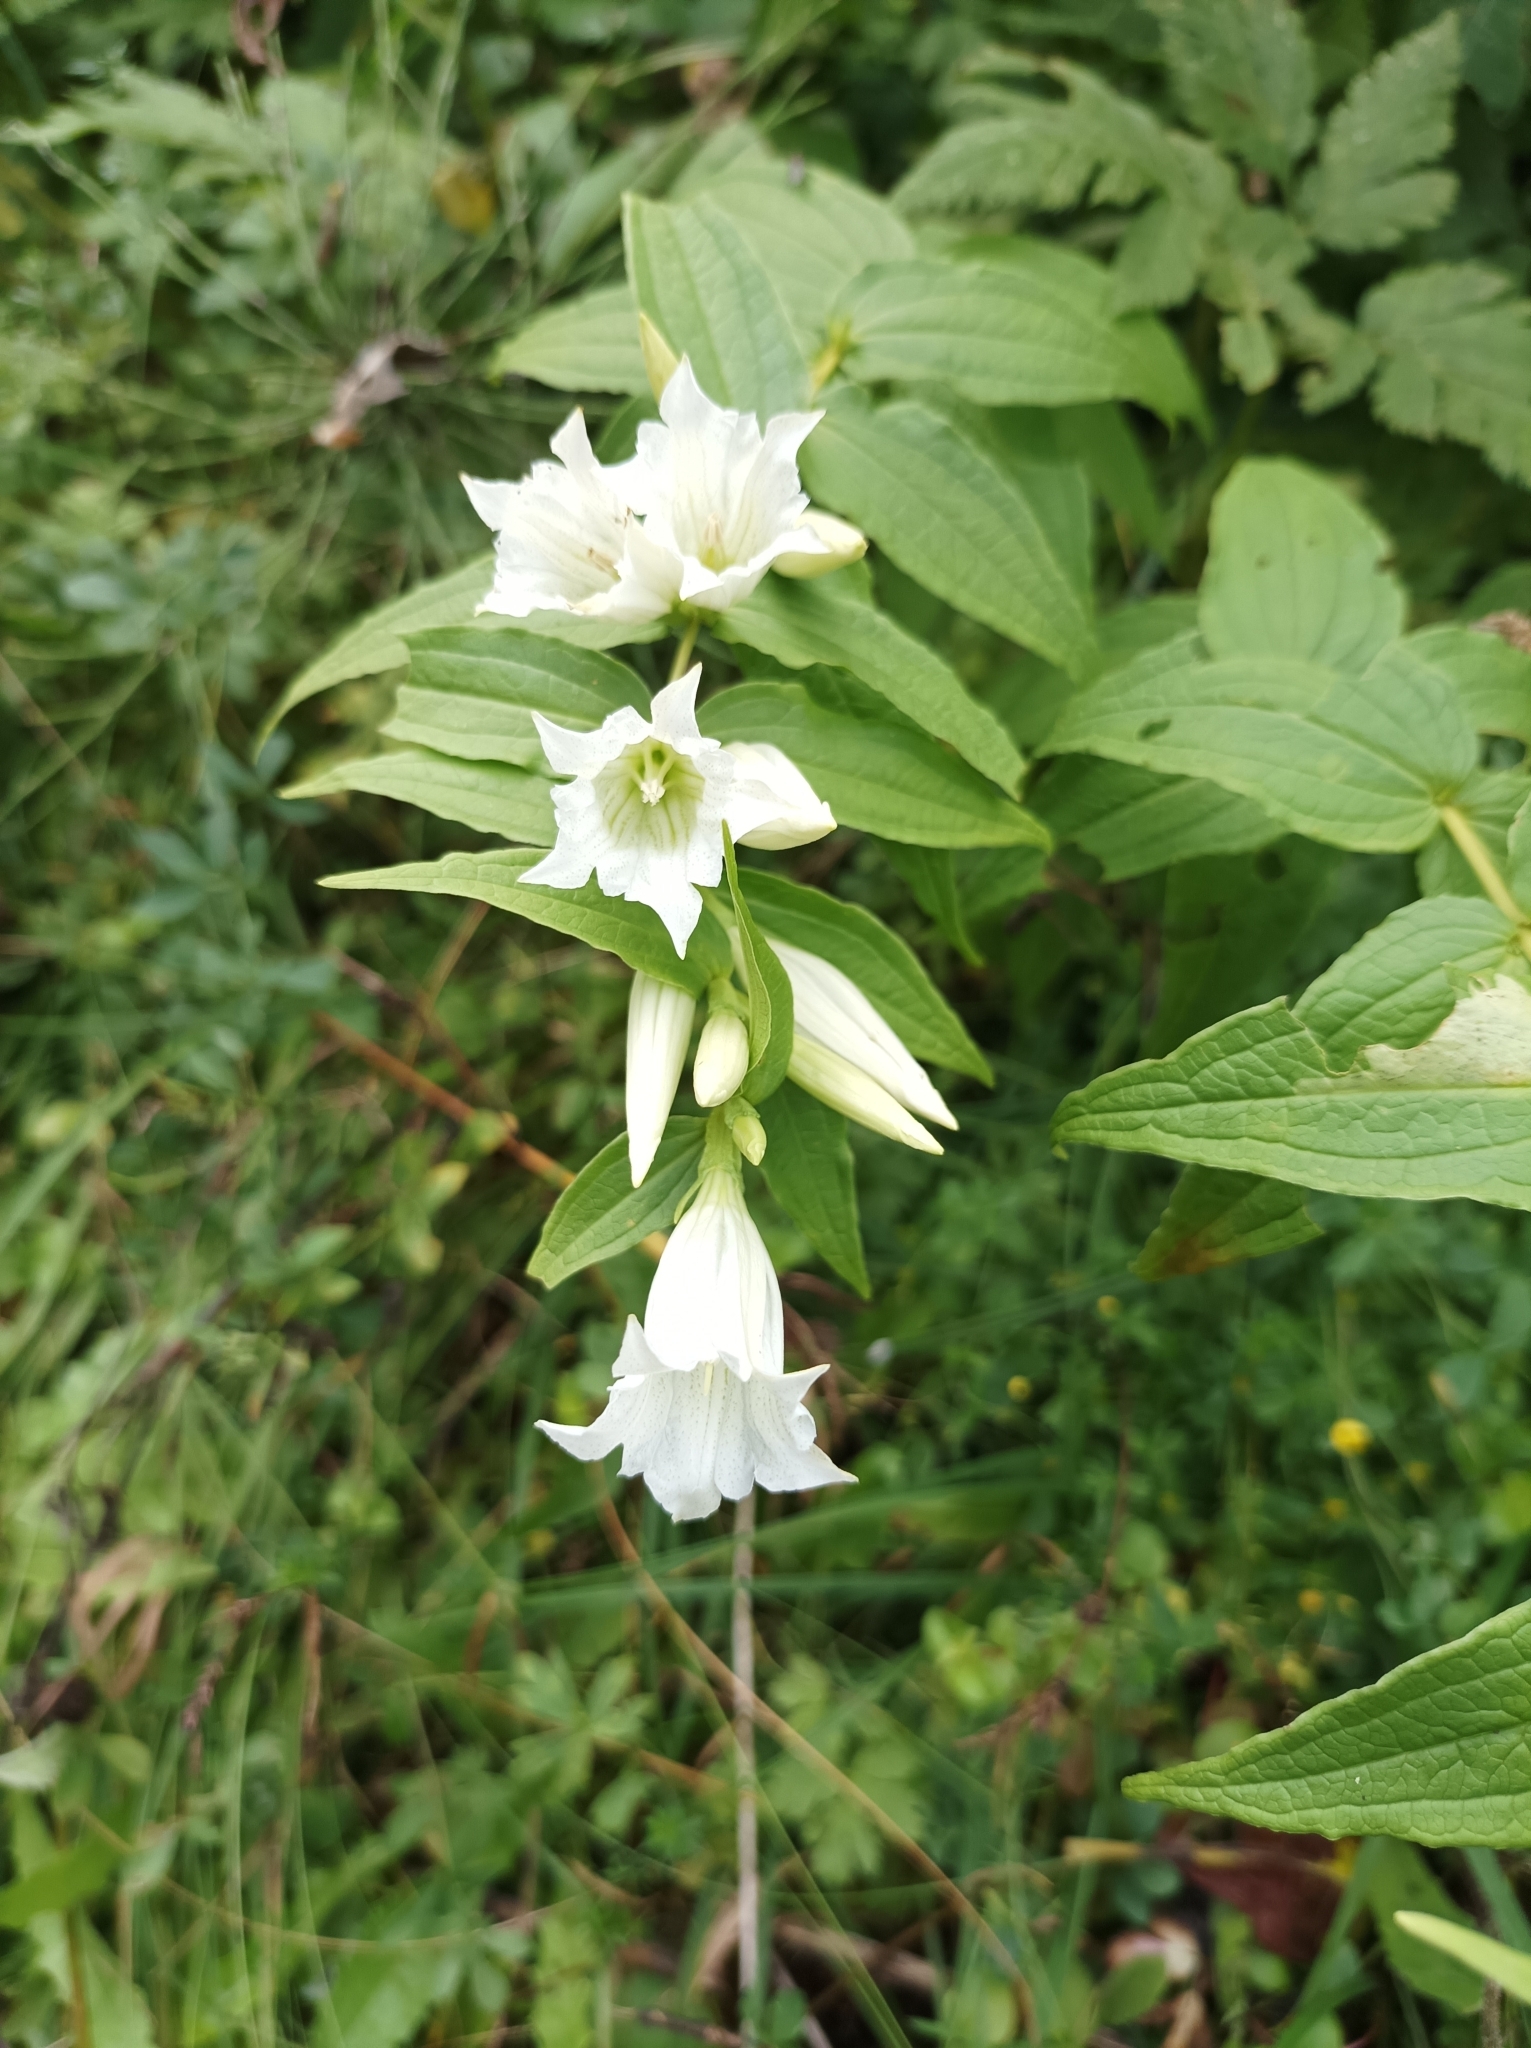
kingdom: Plantae
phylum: Tracheophyta
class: Magnoliopsida
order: Gentianales
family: Gentianaceae
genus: Gentiana
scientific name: Gentiana asclepiadea
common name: Willow gentian
